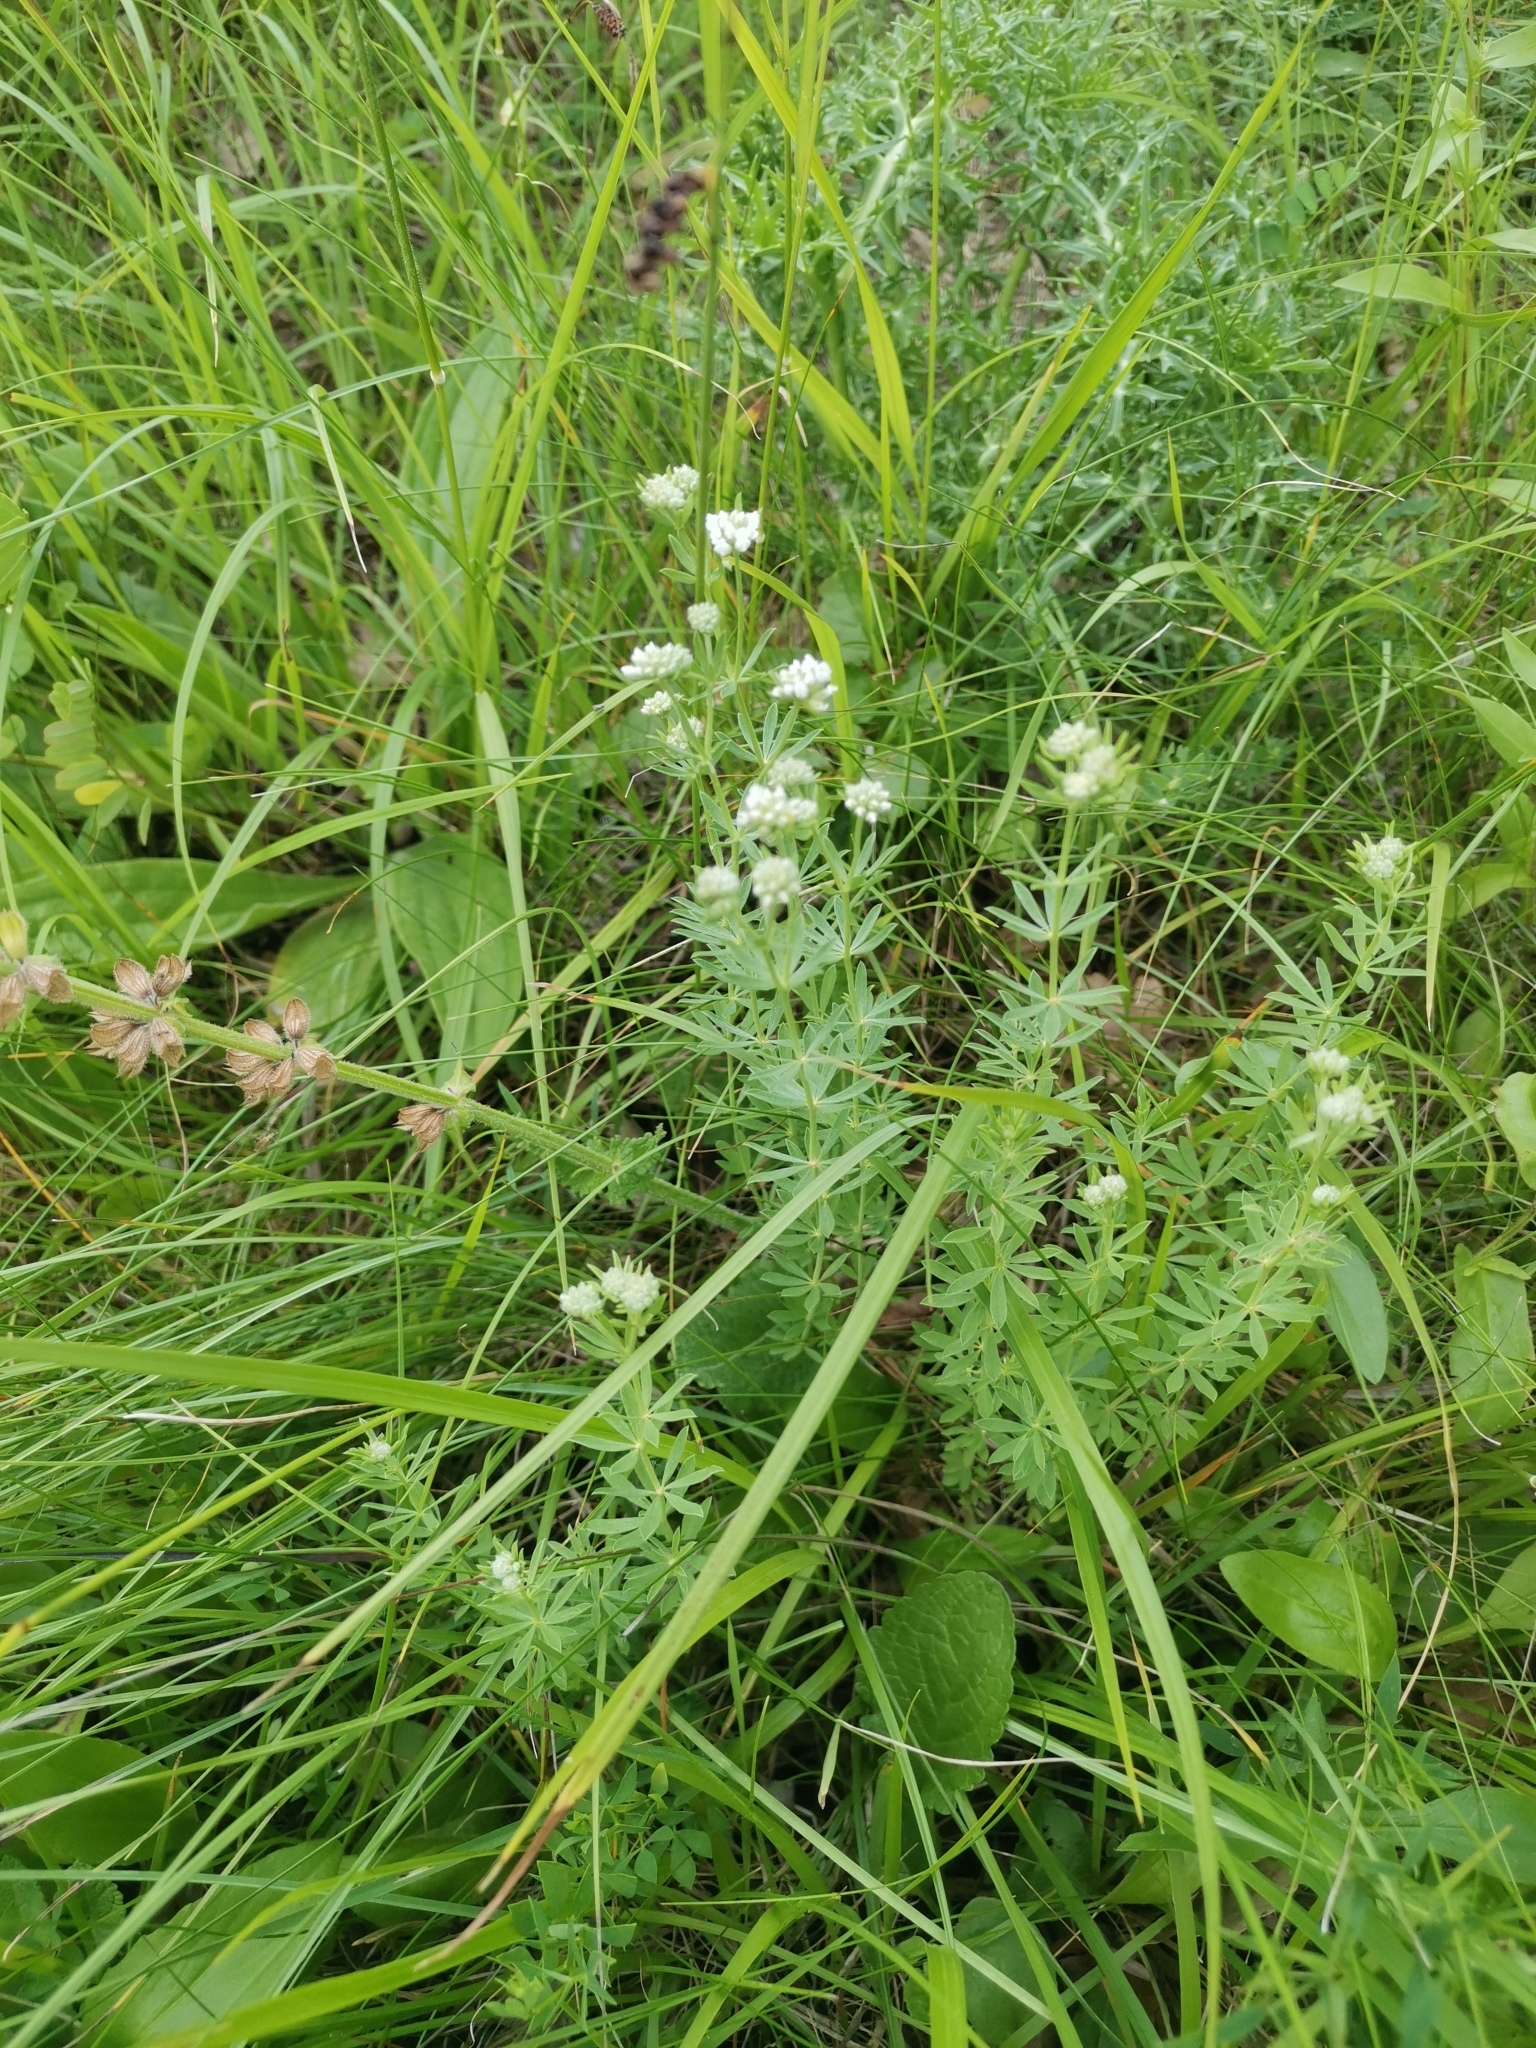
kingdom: Plantae
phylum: Tracheophyta
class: Magnoliopsida
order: Fabales
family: Fabaceae
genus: Lotus
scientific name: Lotus germanicus
